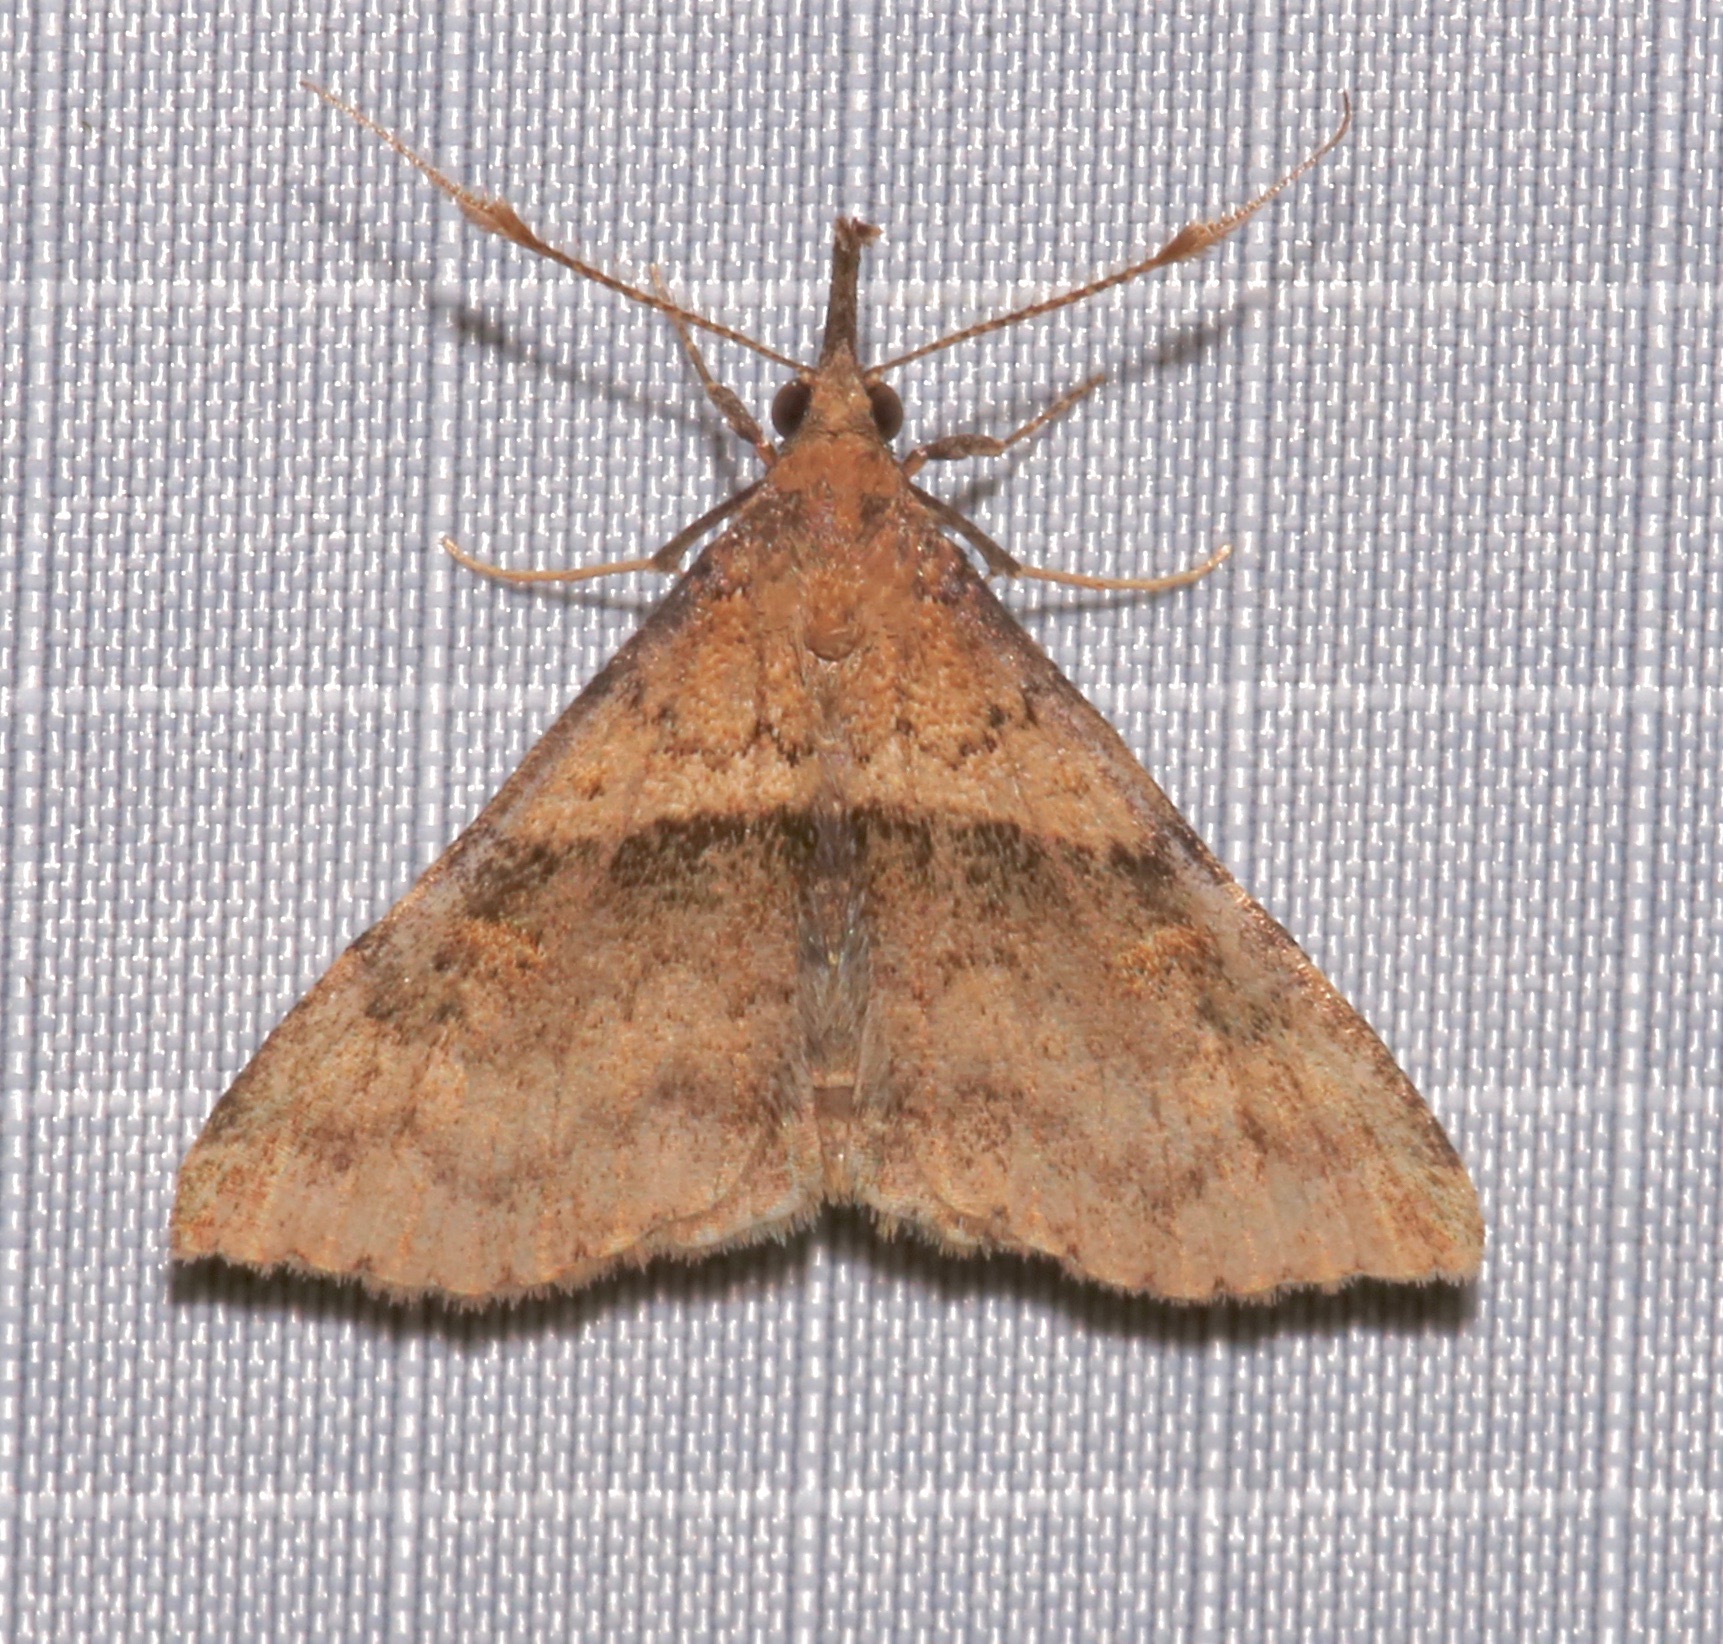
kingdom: Animalia
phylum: Arthropoda
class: Insecta
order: Lepidoptera
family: Erebidae
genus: Renia
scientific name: Renia rigida
